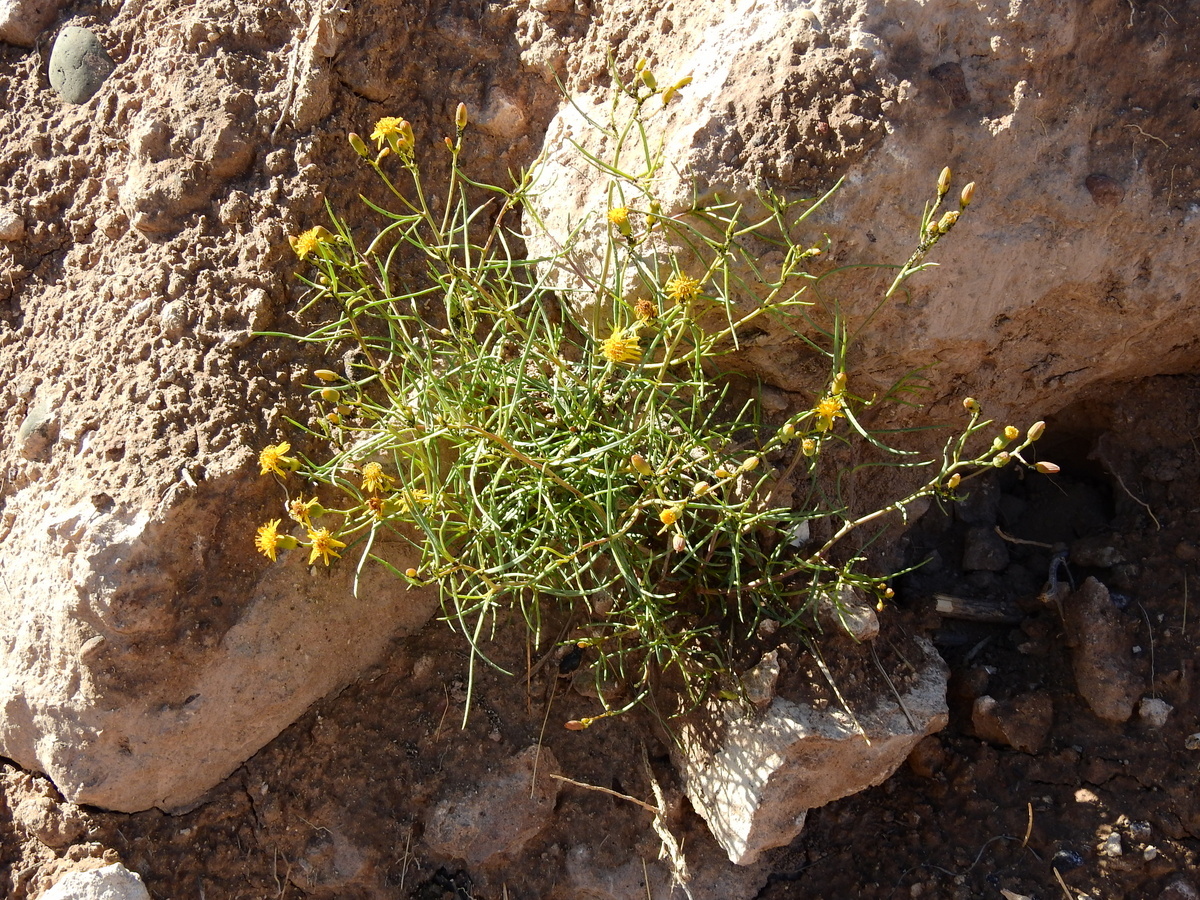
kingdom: Plantae
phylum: Tracheophyta
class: Magnoliopsida
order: Asterales
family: Asteraceae
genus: Senecio
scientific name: Senecio subulatus
